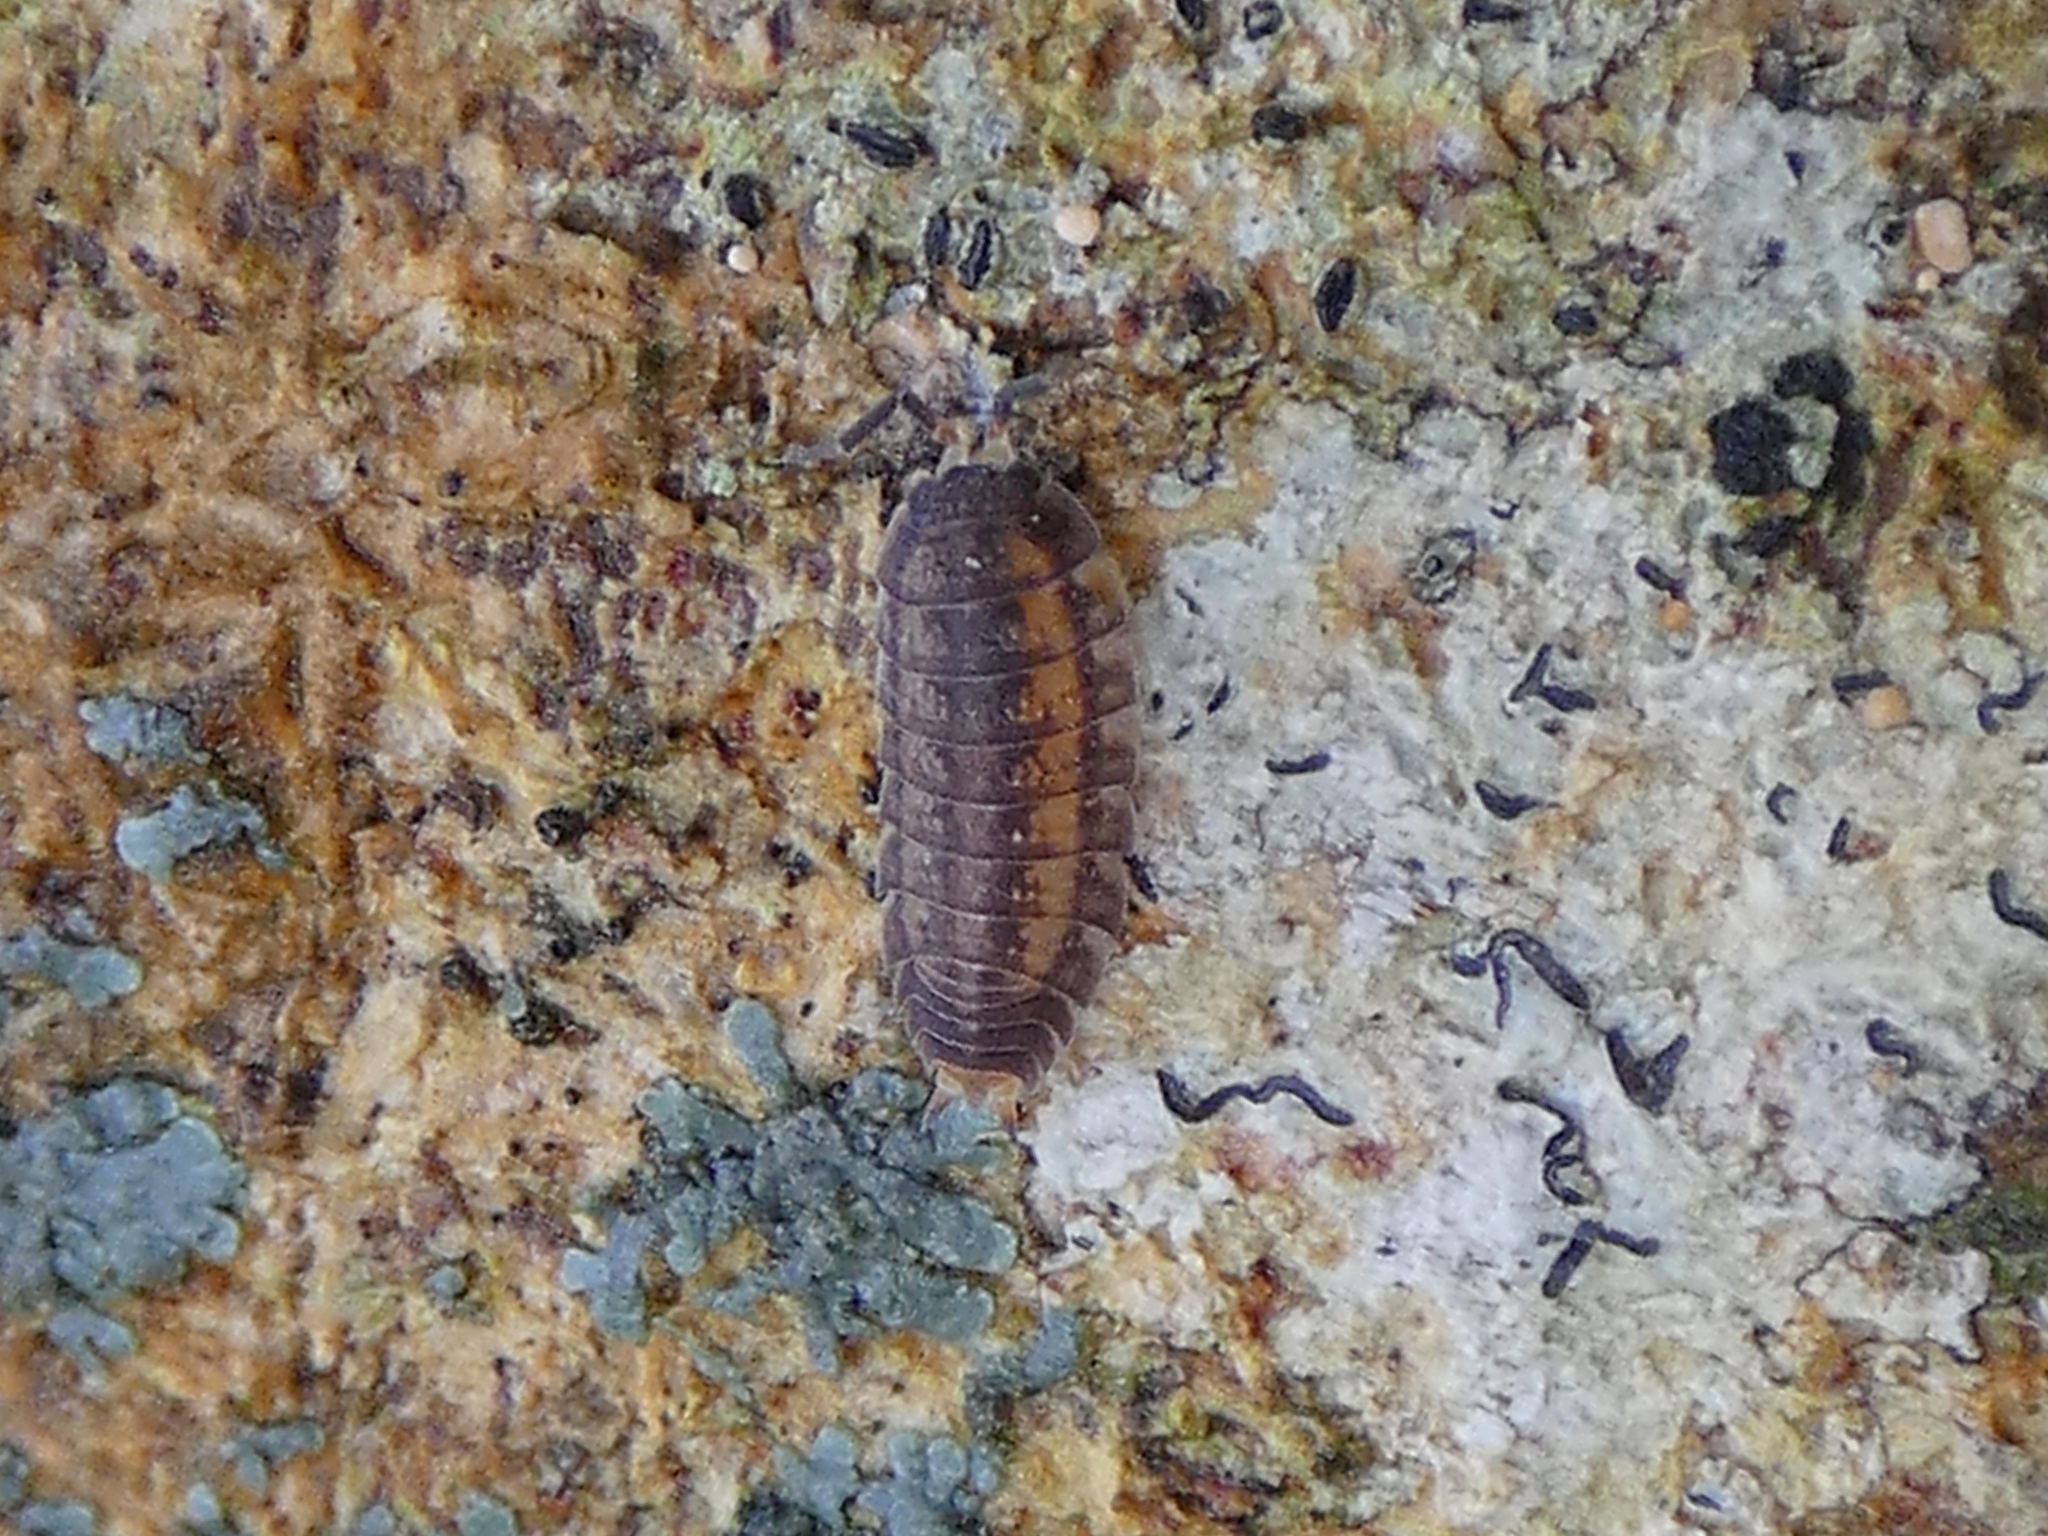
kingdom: Animalia
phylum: Arthropoda
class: Malacostraca
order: Isopoda
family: Trachelipodidae
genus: Nagurus
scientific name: Nagurus cristatus
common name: Pillbug
